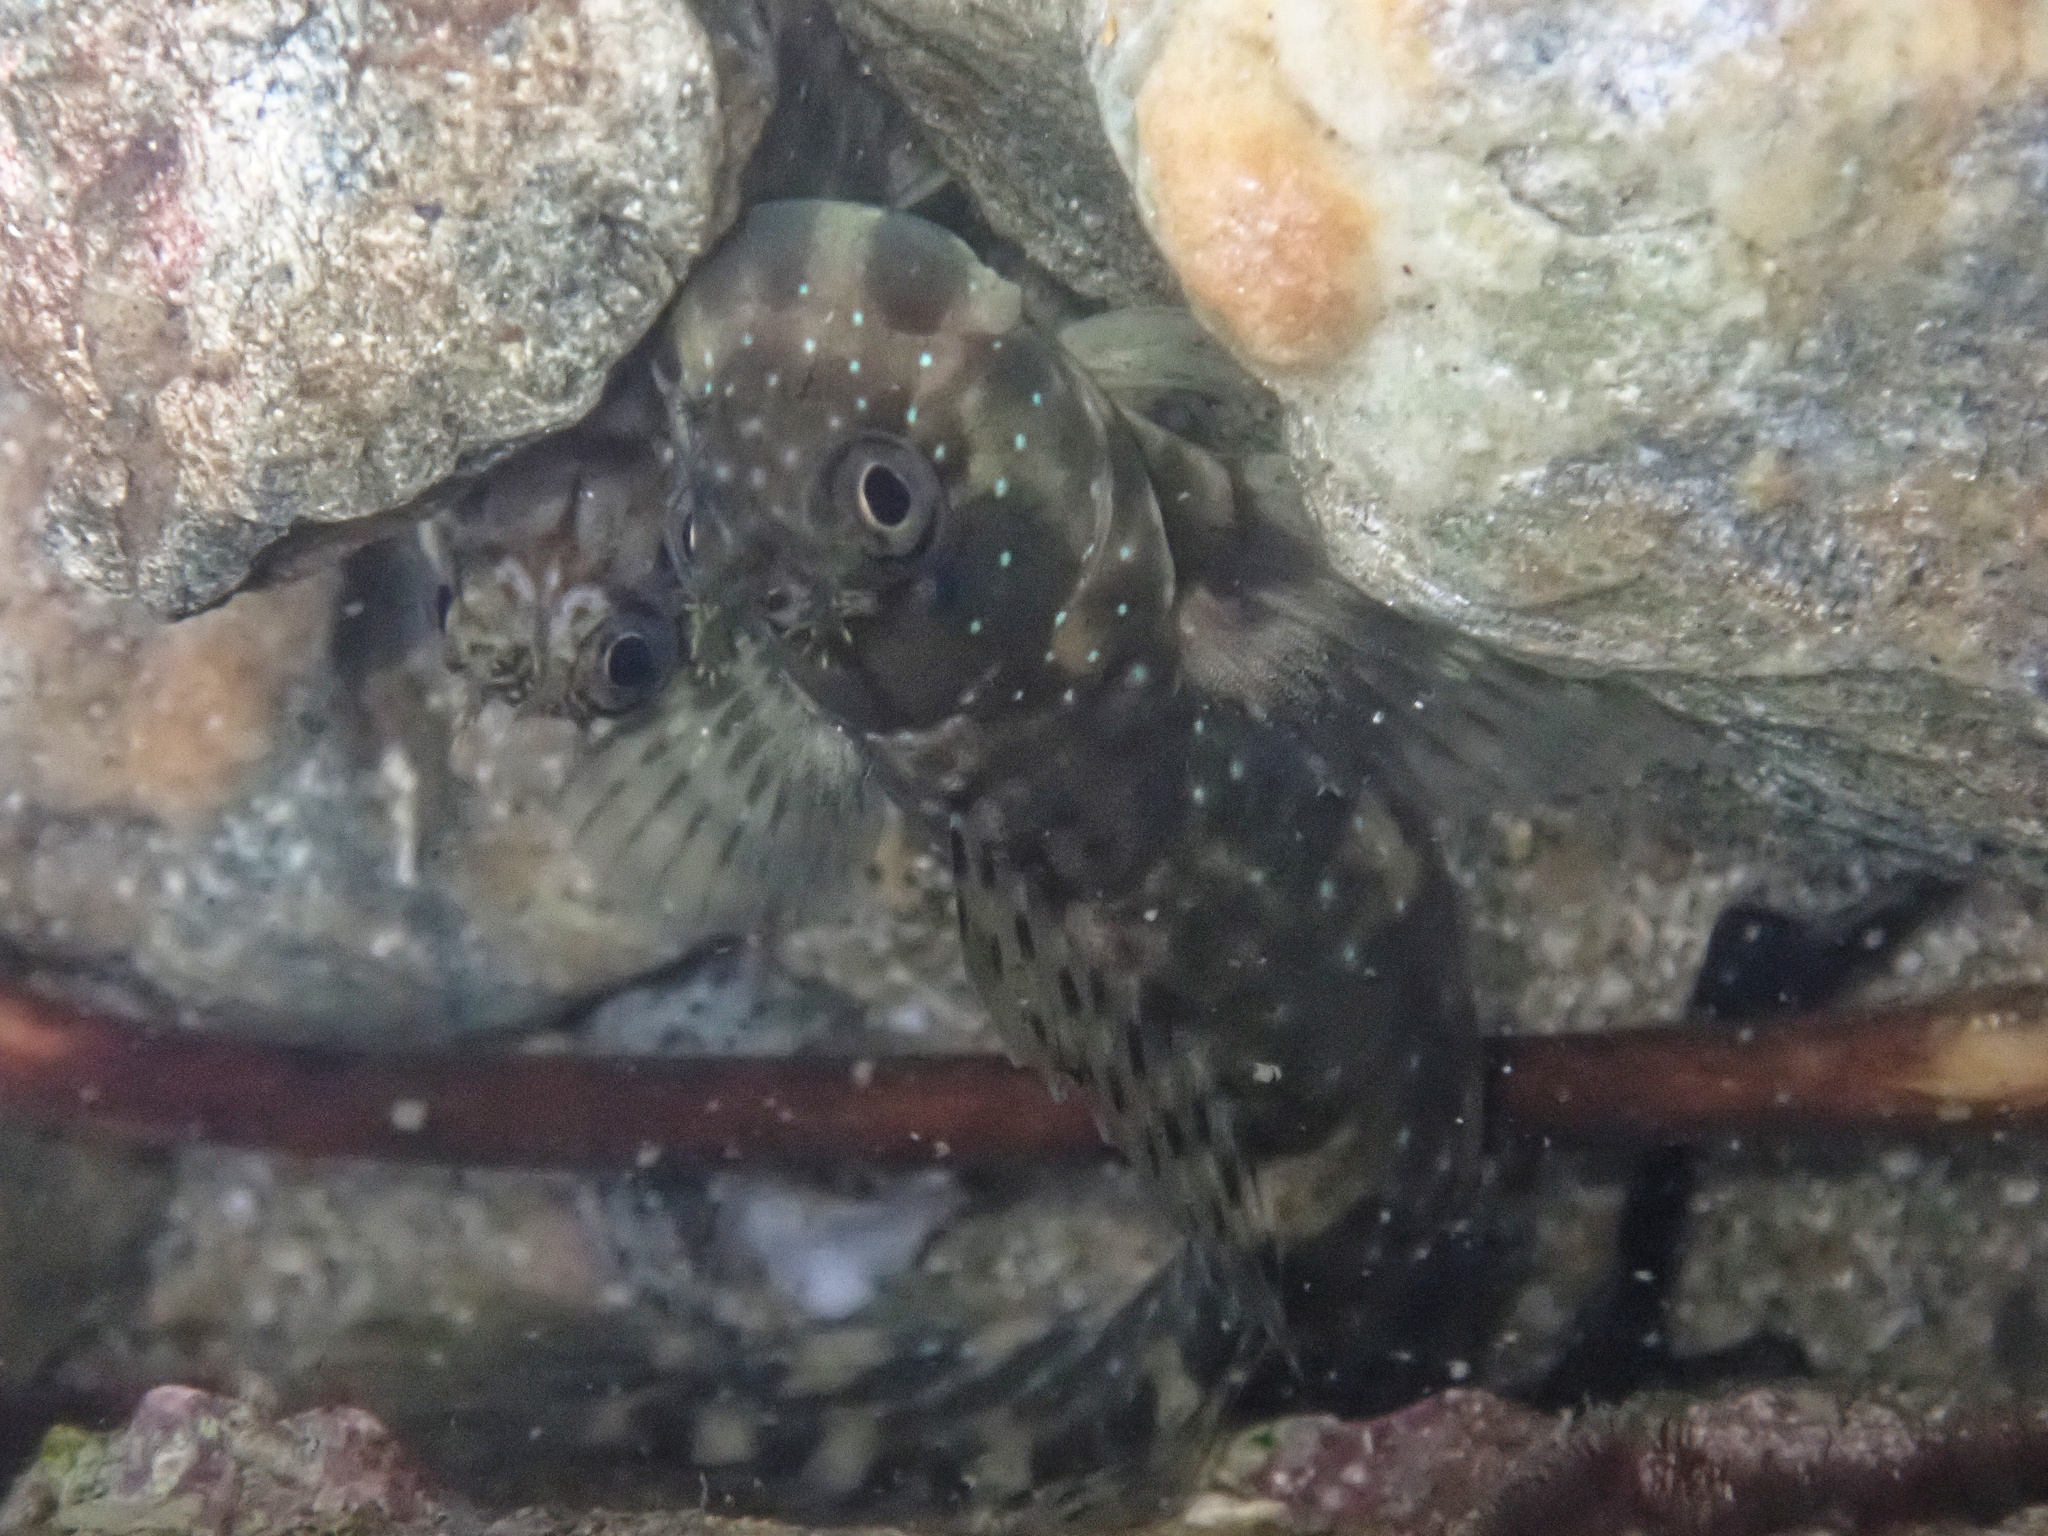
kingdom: Animalia
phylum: Chordata
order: Perciformes
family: Blenniidae
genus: Istiblennius
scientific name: Istiblennius meleagris
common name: Peacock rockskipper
